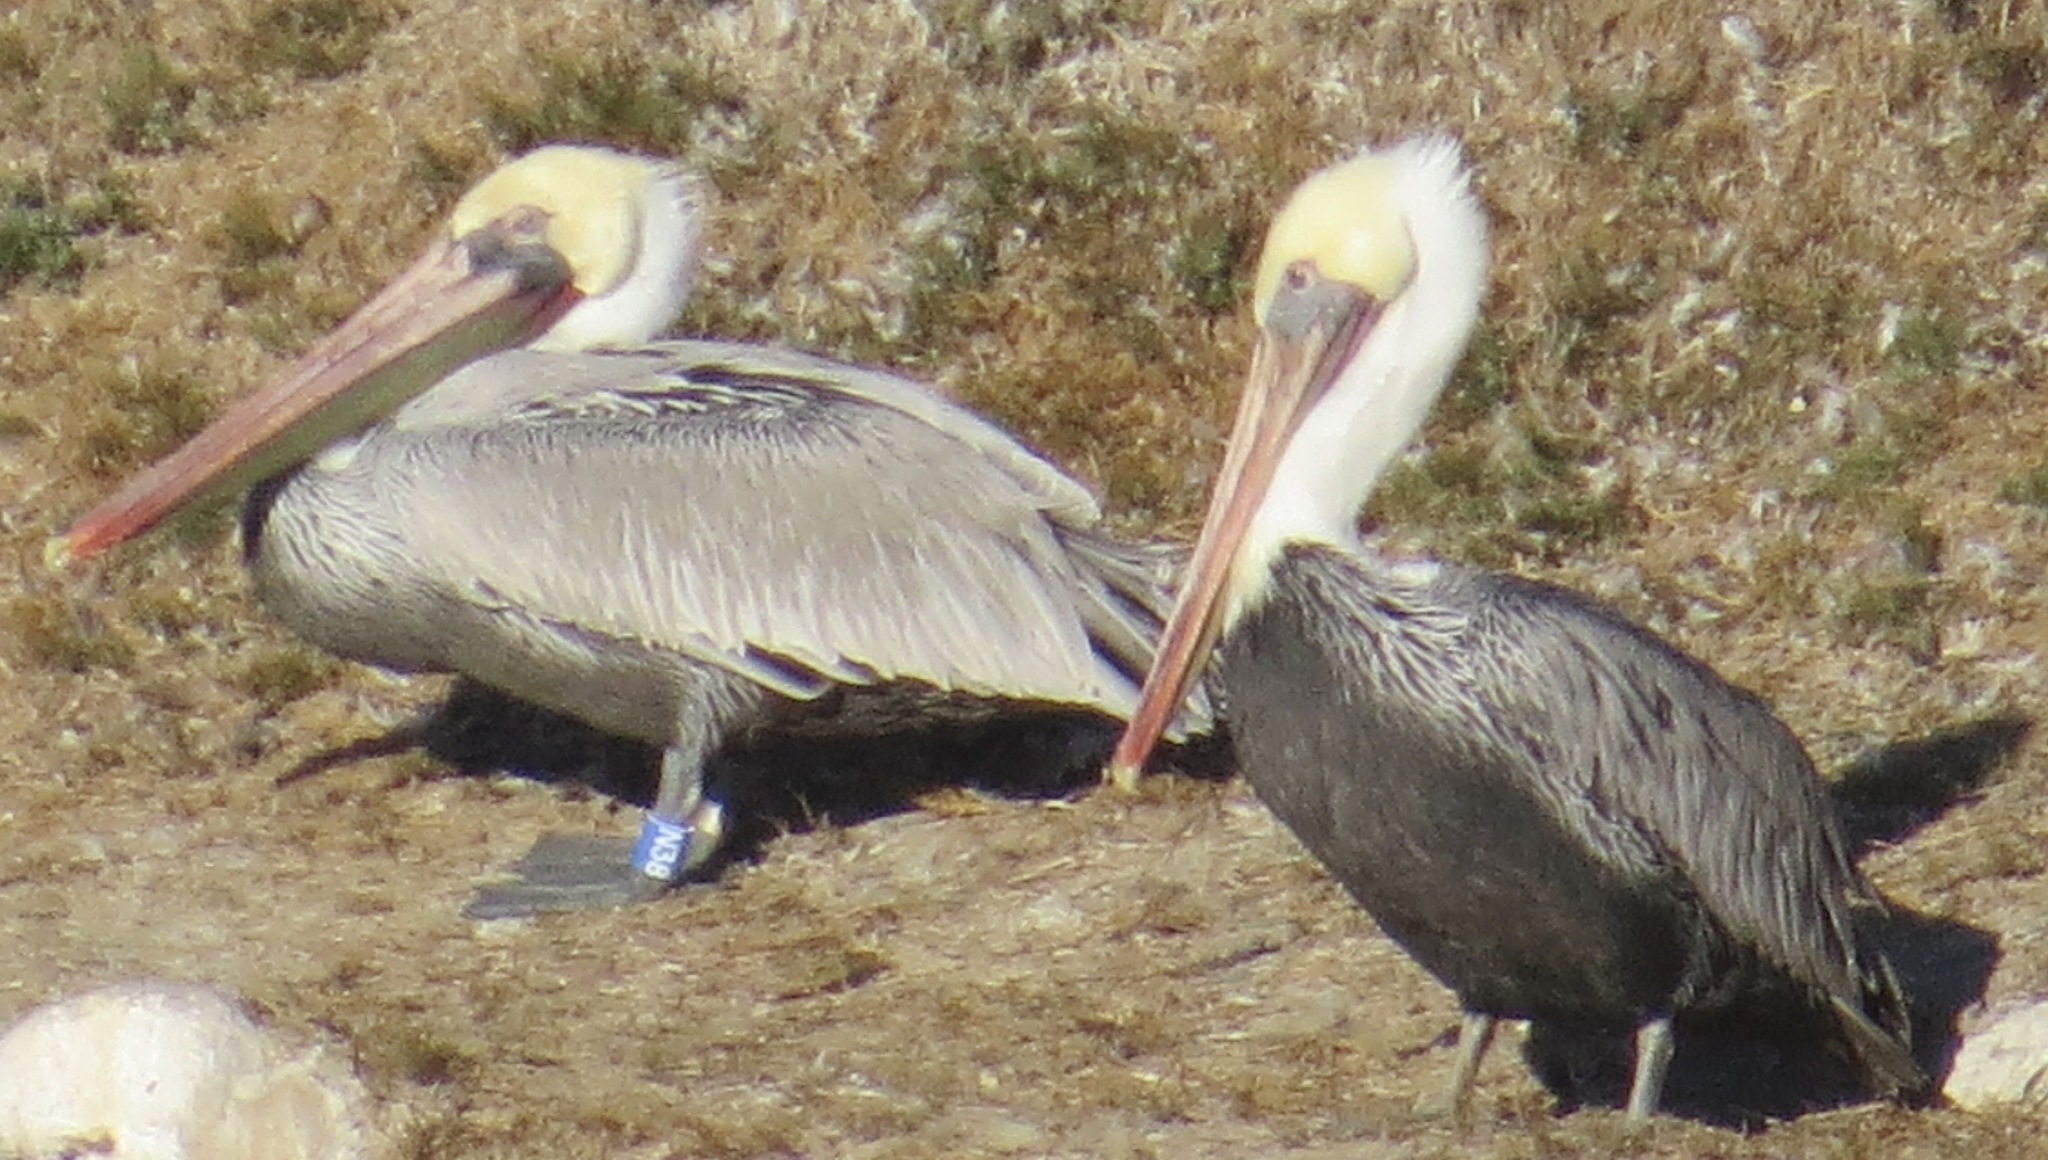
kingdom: Animalia
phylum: Chordata
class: Aves
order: Pelecaniformes
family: Pelecanidae
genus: Pelecanus
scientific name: Pelecanus occidentalis
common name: Brown pelican
